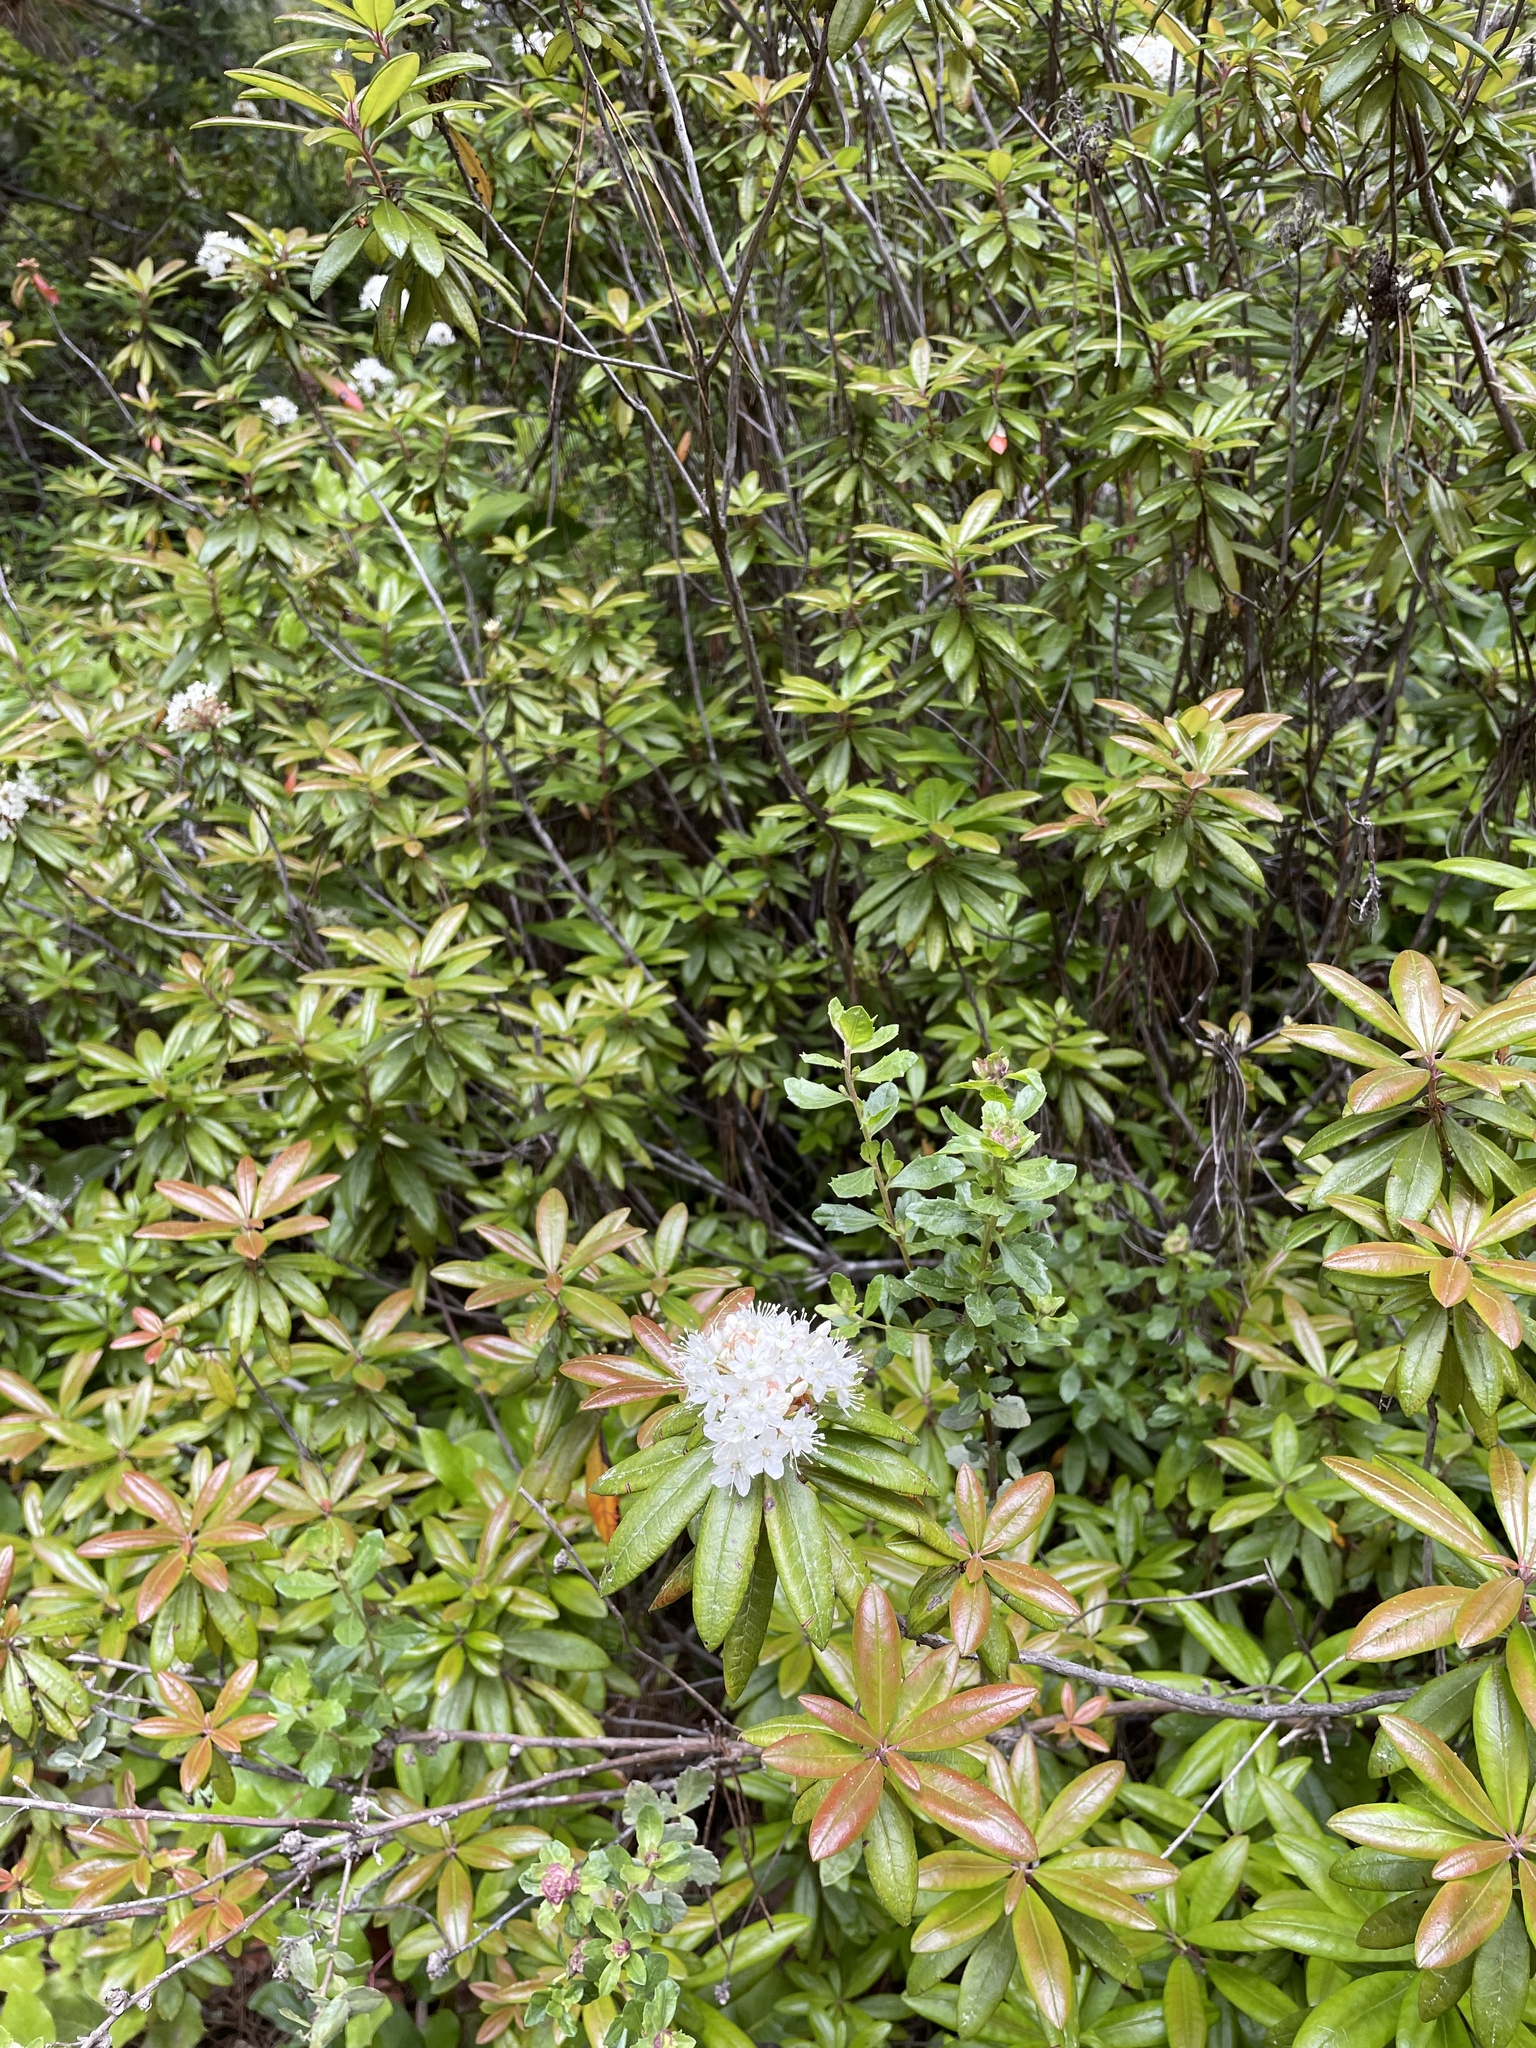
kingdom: Plantae
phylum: Tracheophyta
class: Magnoliopsida
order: Ericales
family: Ericaceae
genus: Rhododendron
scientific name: Rhododendron columbianum
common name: Western labrador tea
